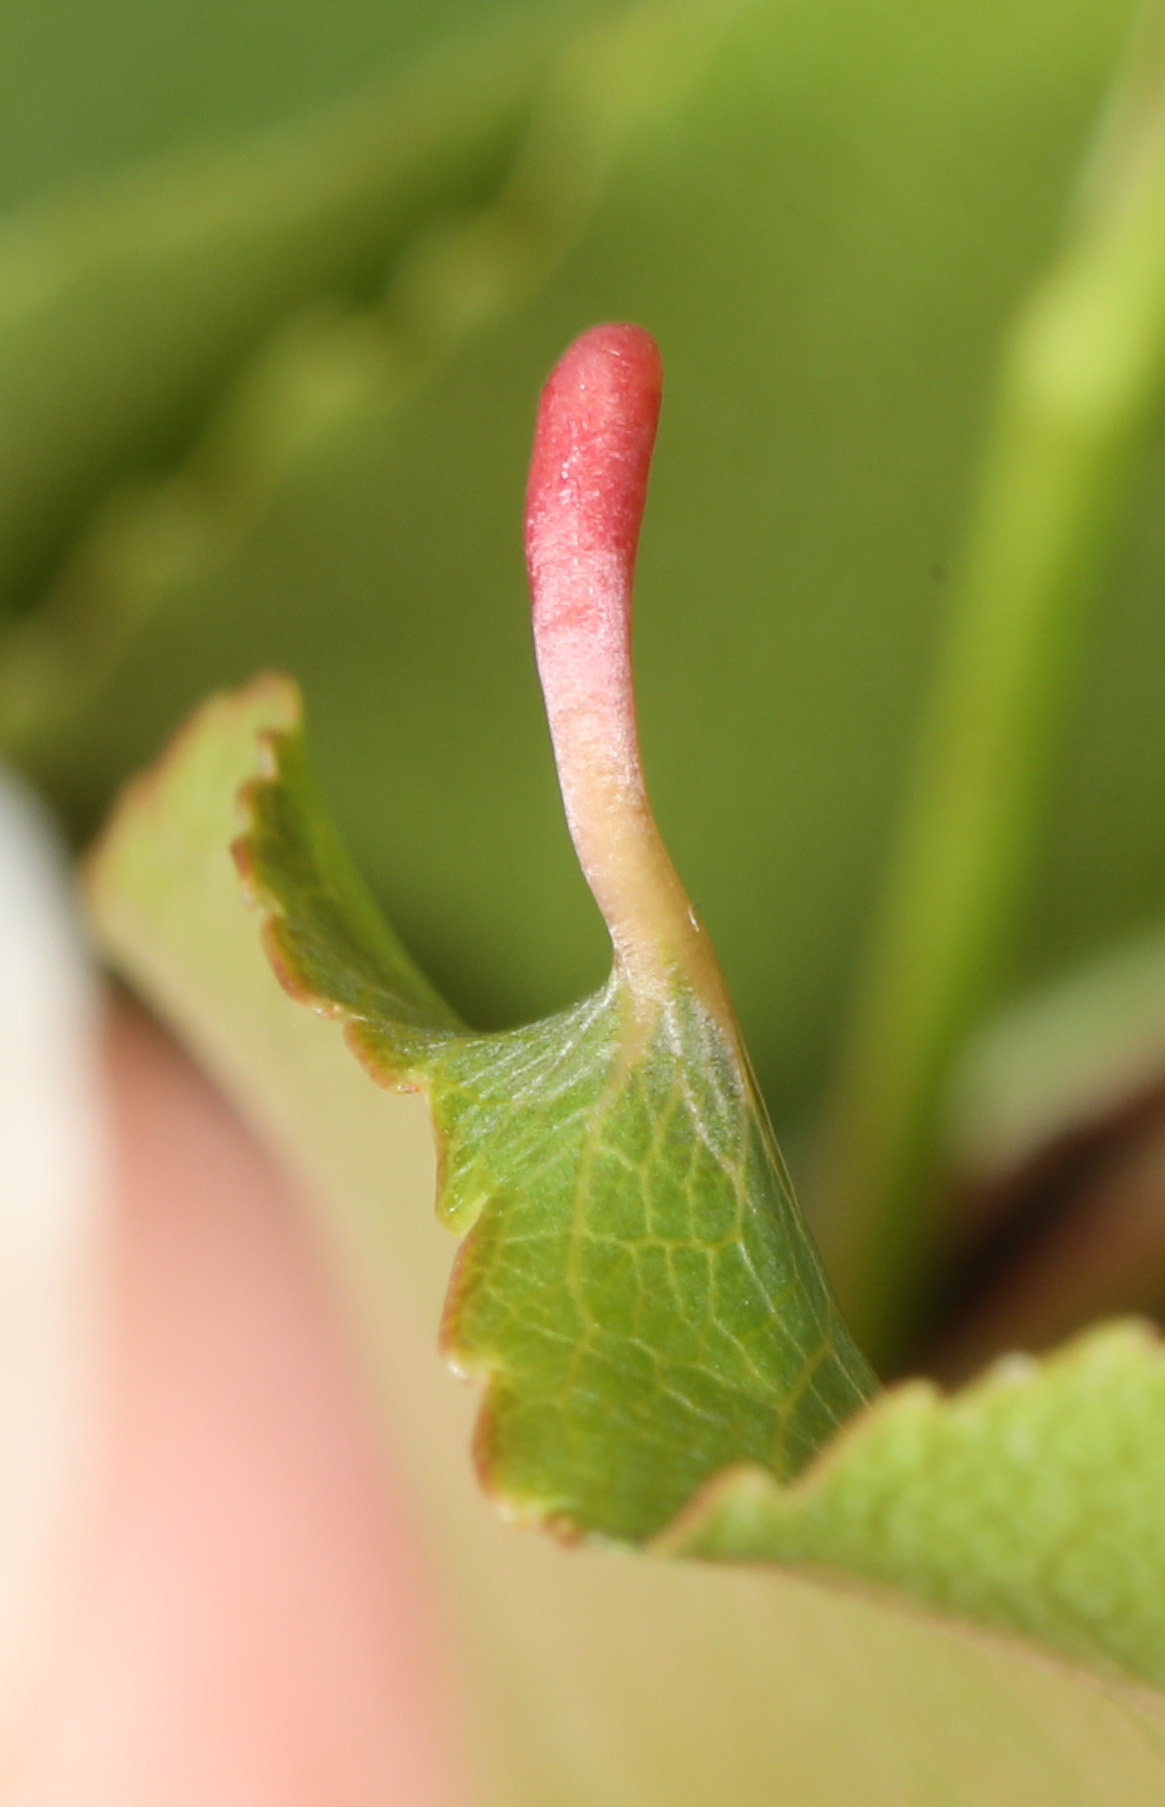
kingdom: Animalia
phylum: Arthropoda
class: Arachnida
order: Trombidiformes
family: Eriophyidae
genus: Eriophyes
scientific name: Eriophyes
